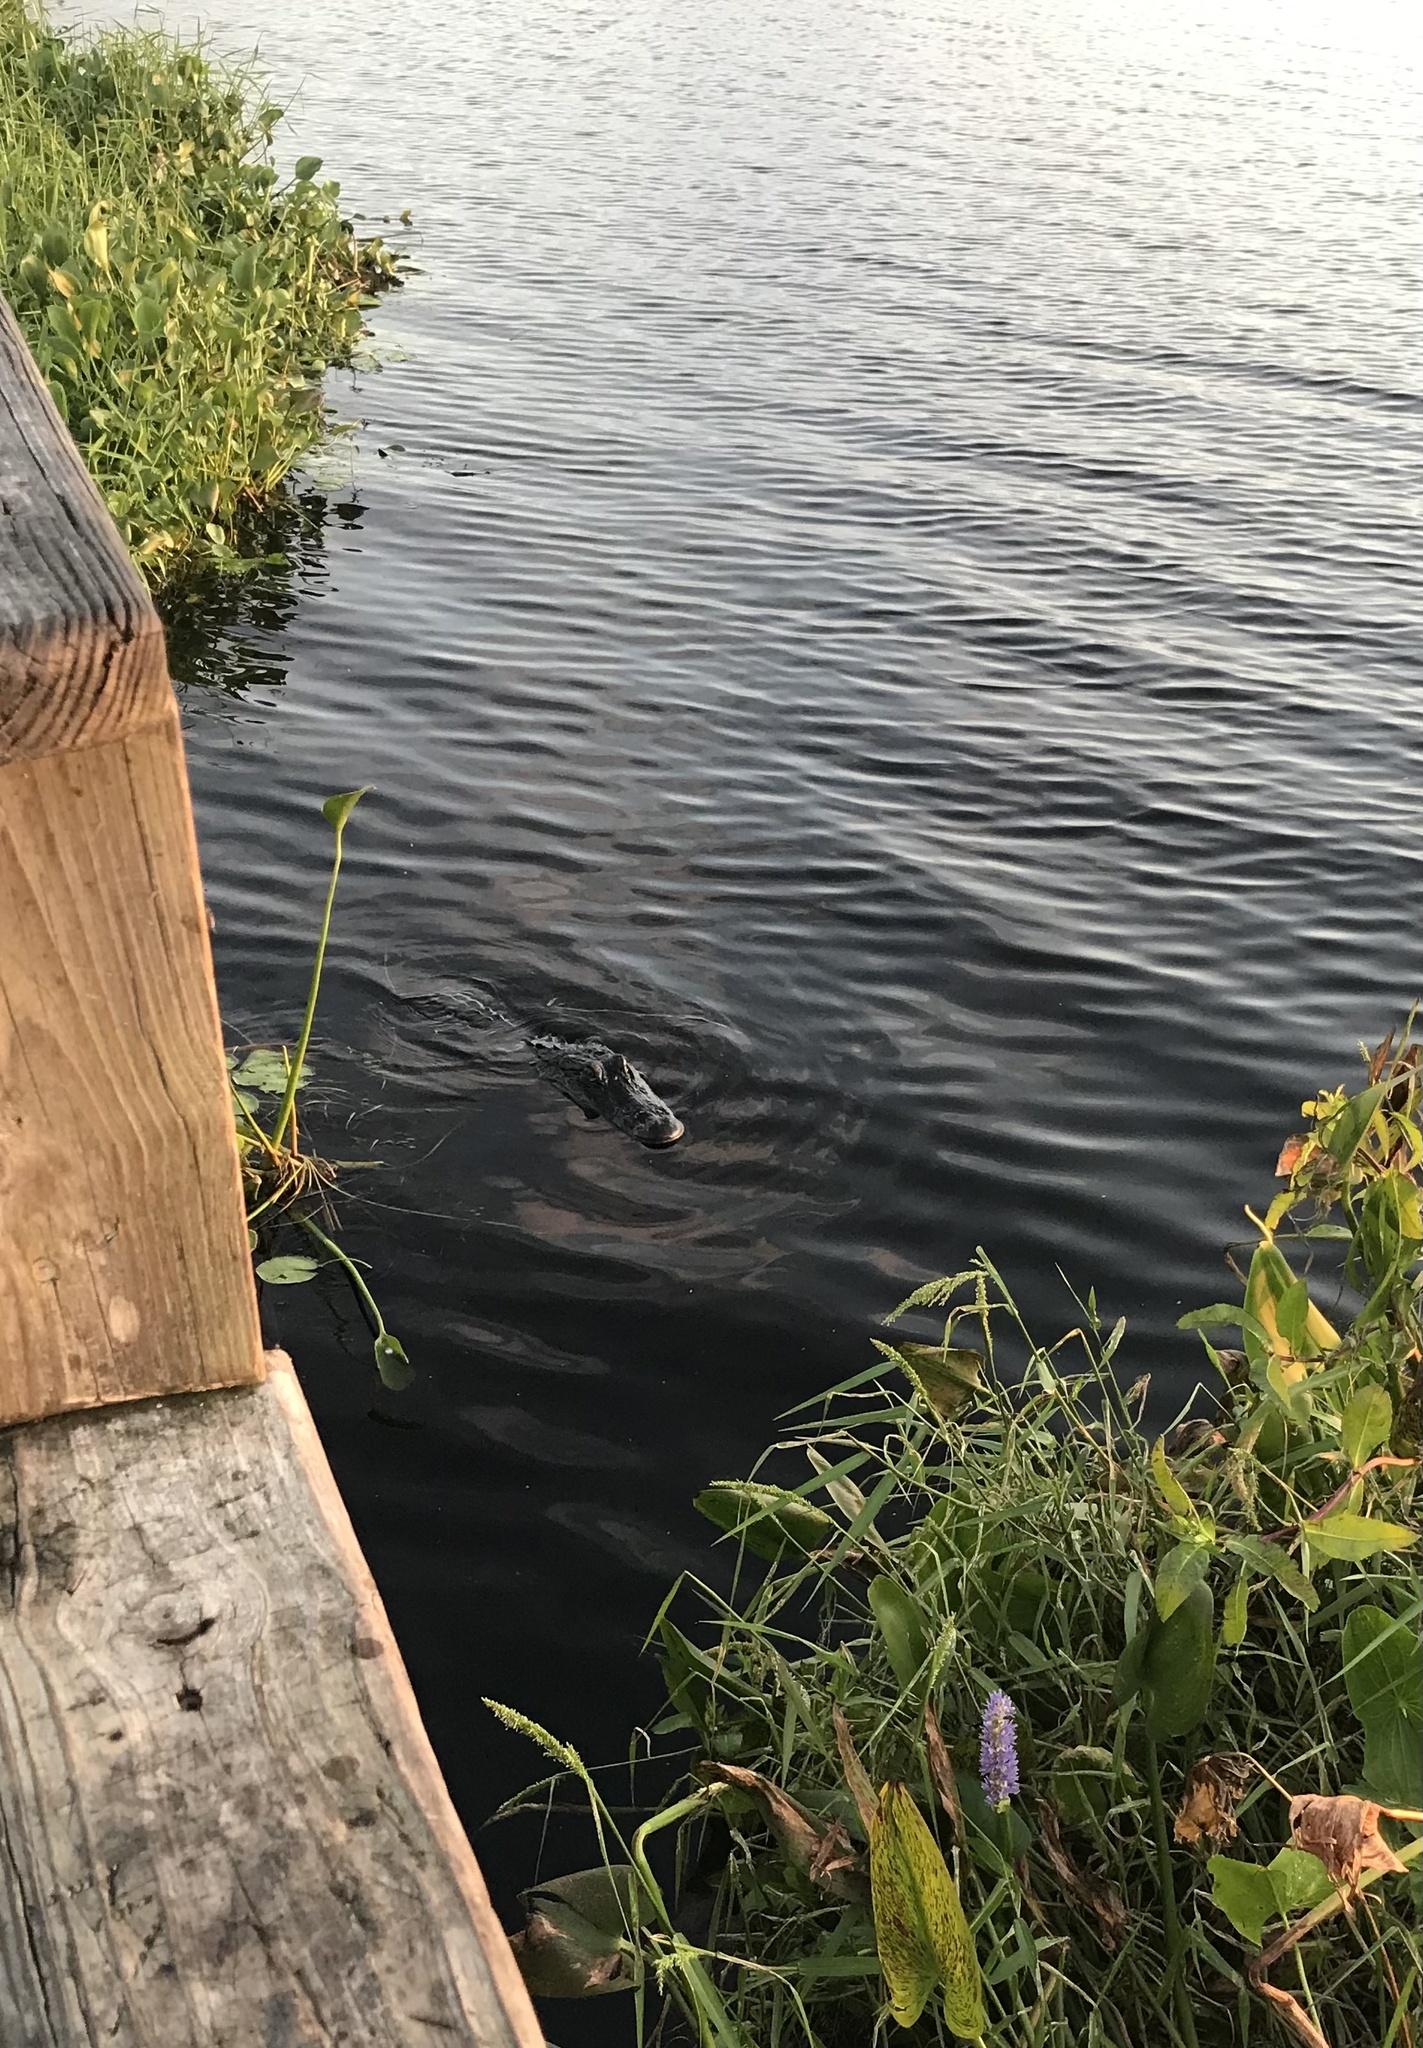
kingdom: Animalia
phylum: Chordata
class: Crocodylia
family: Alligatoridae
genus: Alligator
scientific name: Alligator mississippiensis
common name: American alligator
